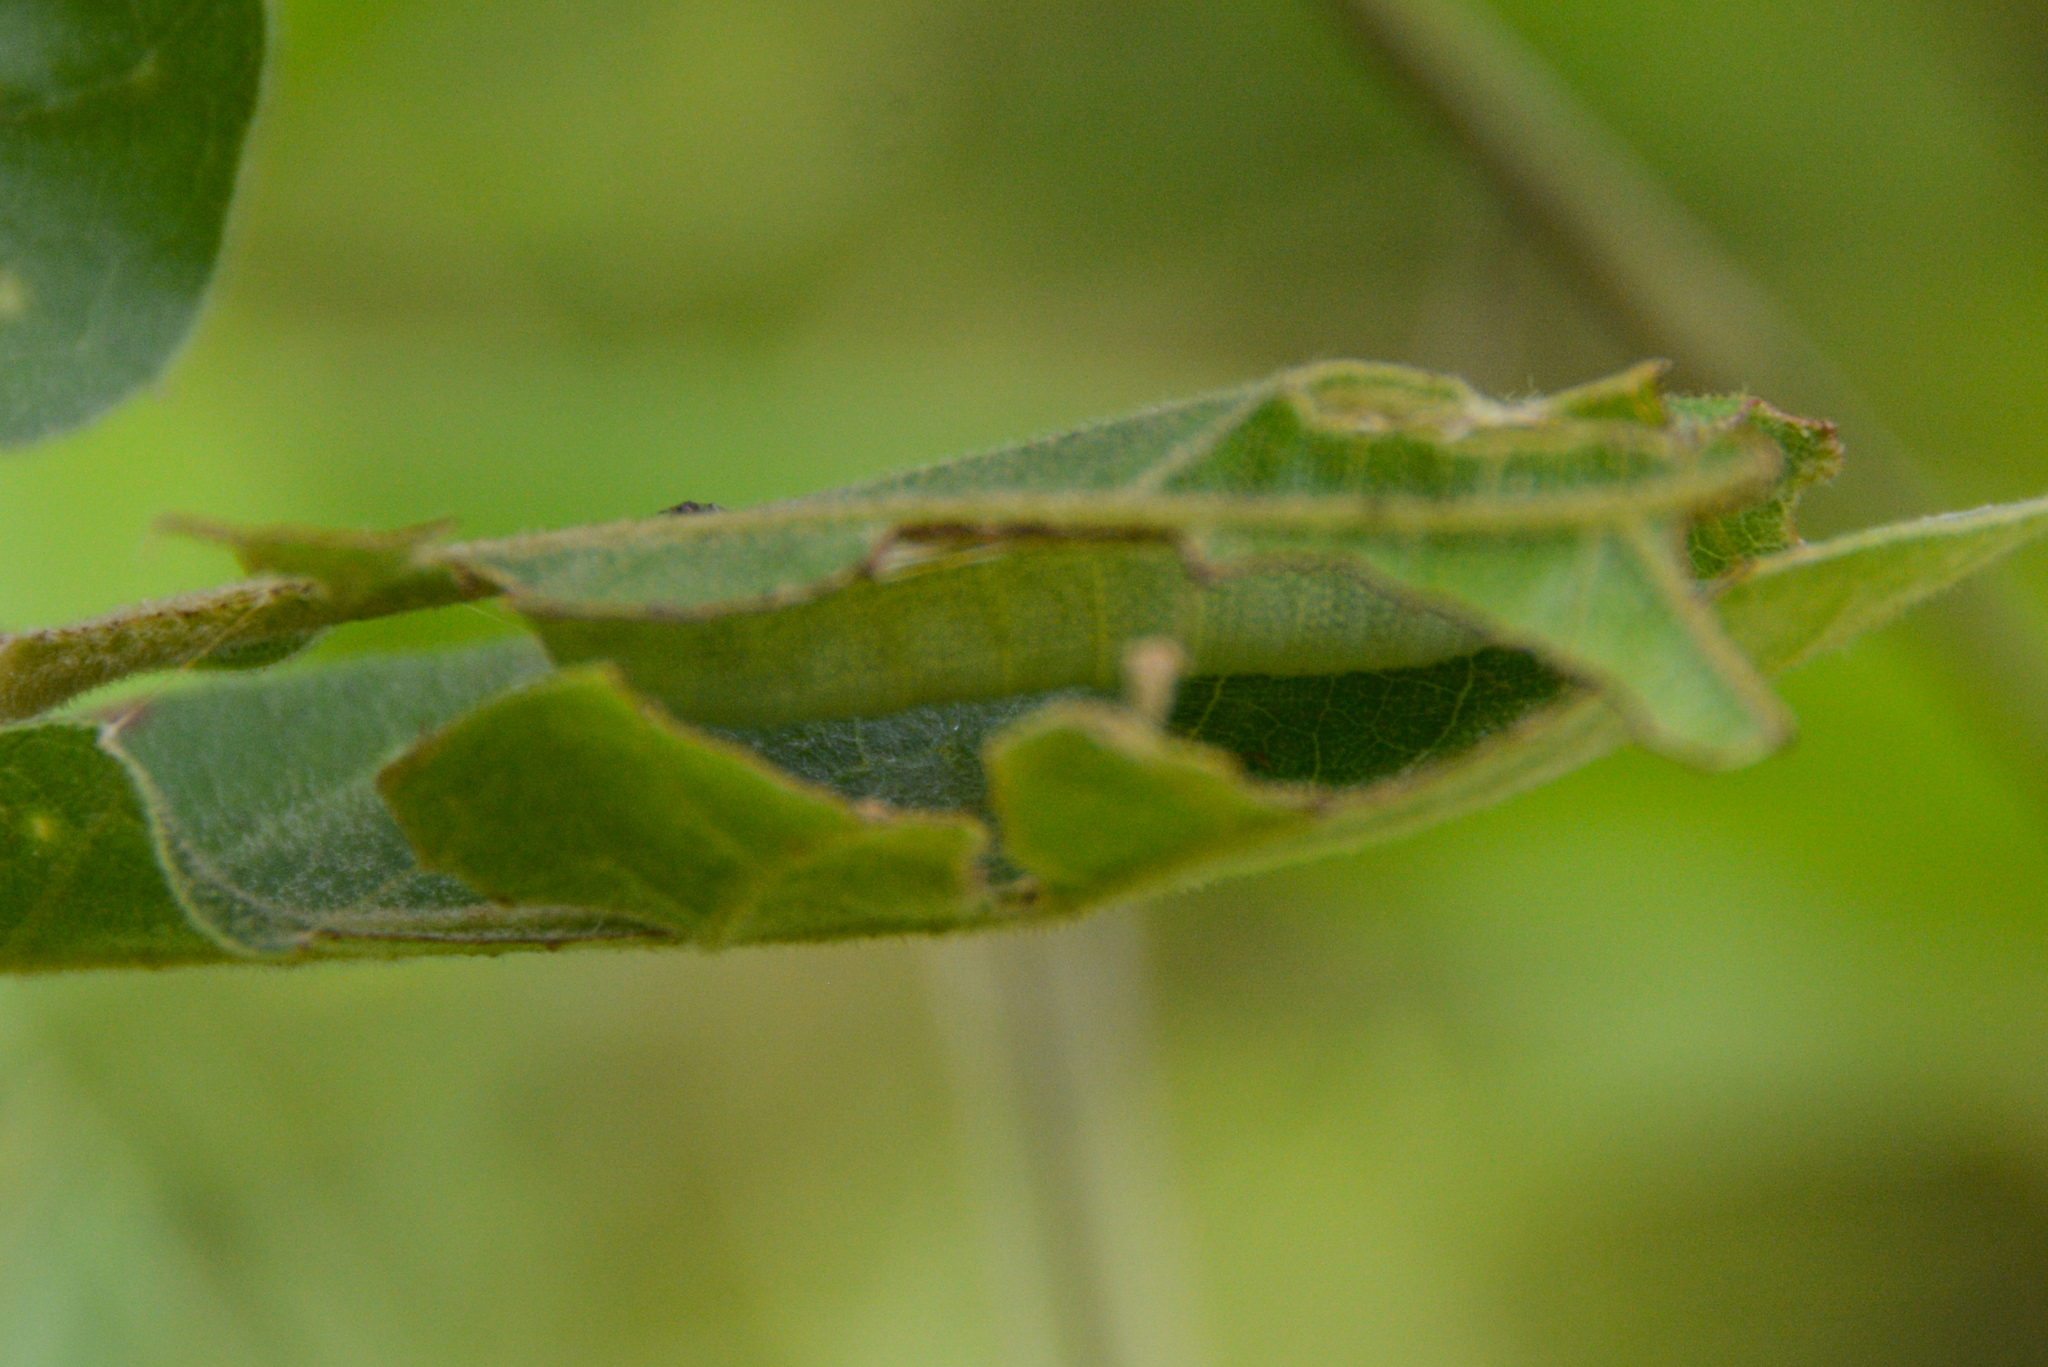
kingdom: Animalia
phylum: Arthropoda
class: Insecta
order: Lepidoptera
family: Hesperiidae
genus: Erynnis
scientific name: Erynnis horatius
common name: Horace's duskywing
